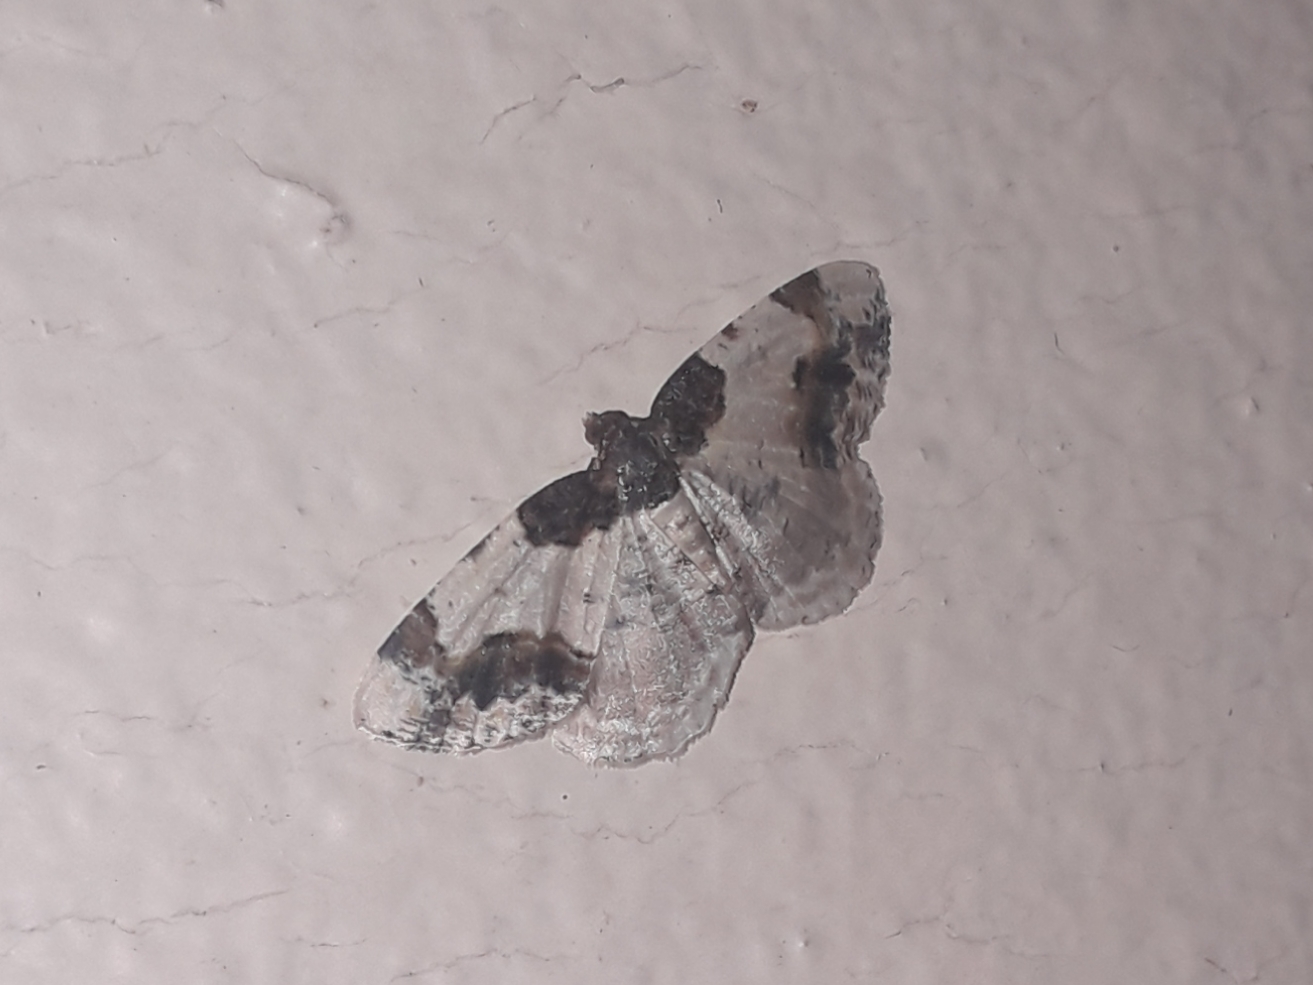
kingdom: Animalia
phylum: Arthropoda
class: Insecta
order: Lepidoptera
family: Geometridae
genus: Ligdia
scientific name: Ligdia adustata
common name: Scorched carpet
